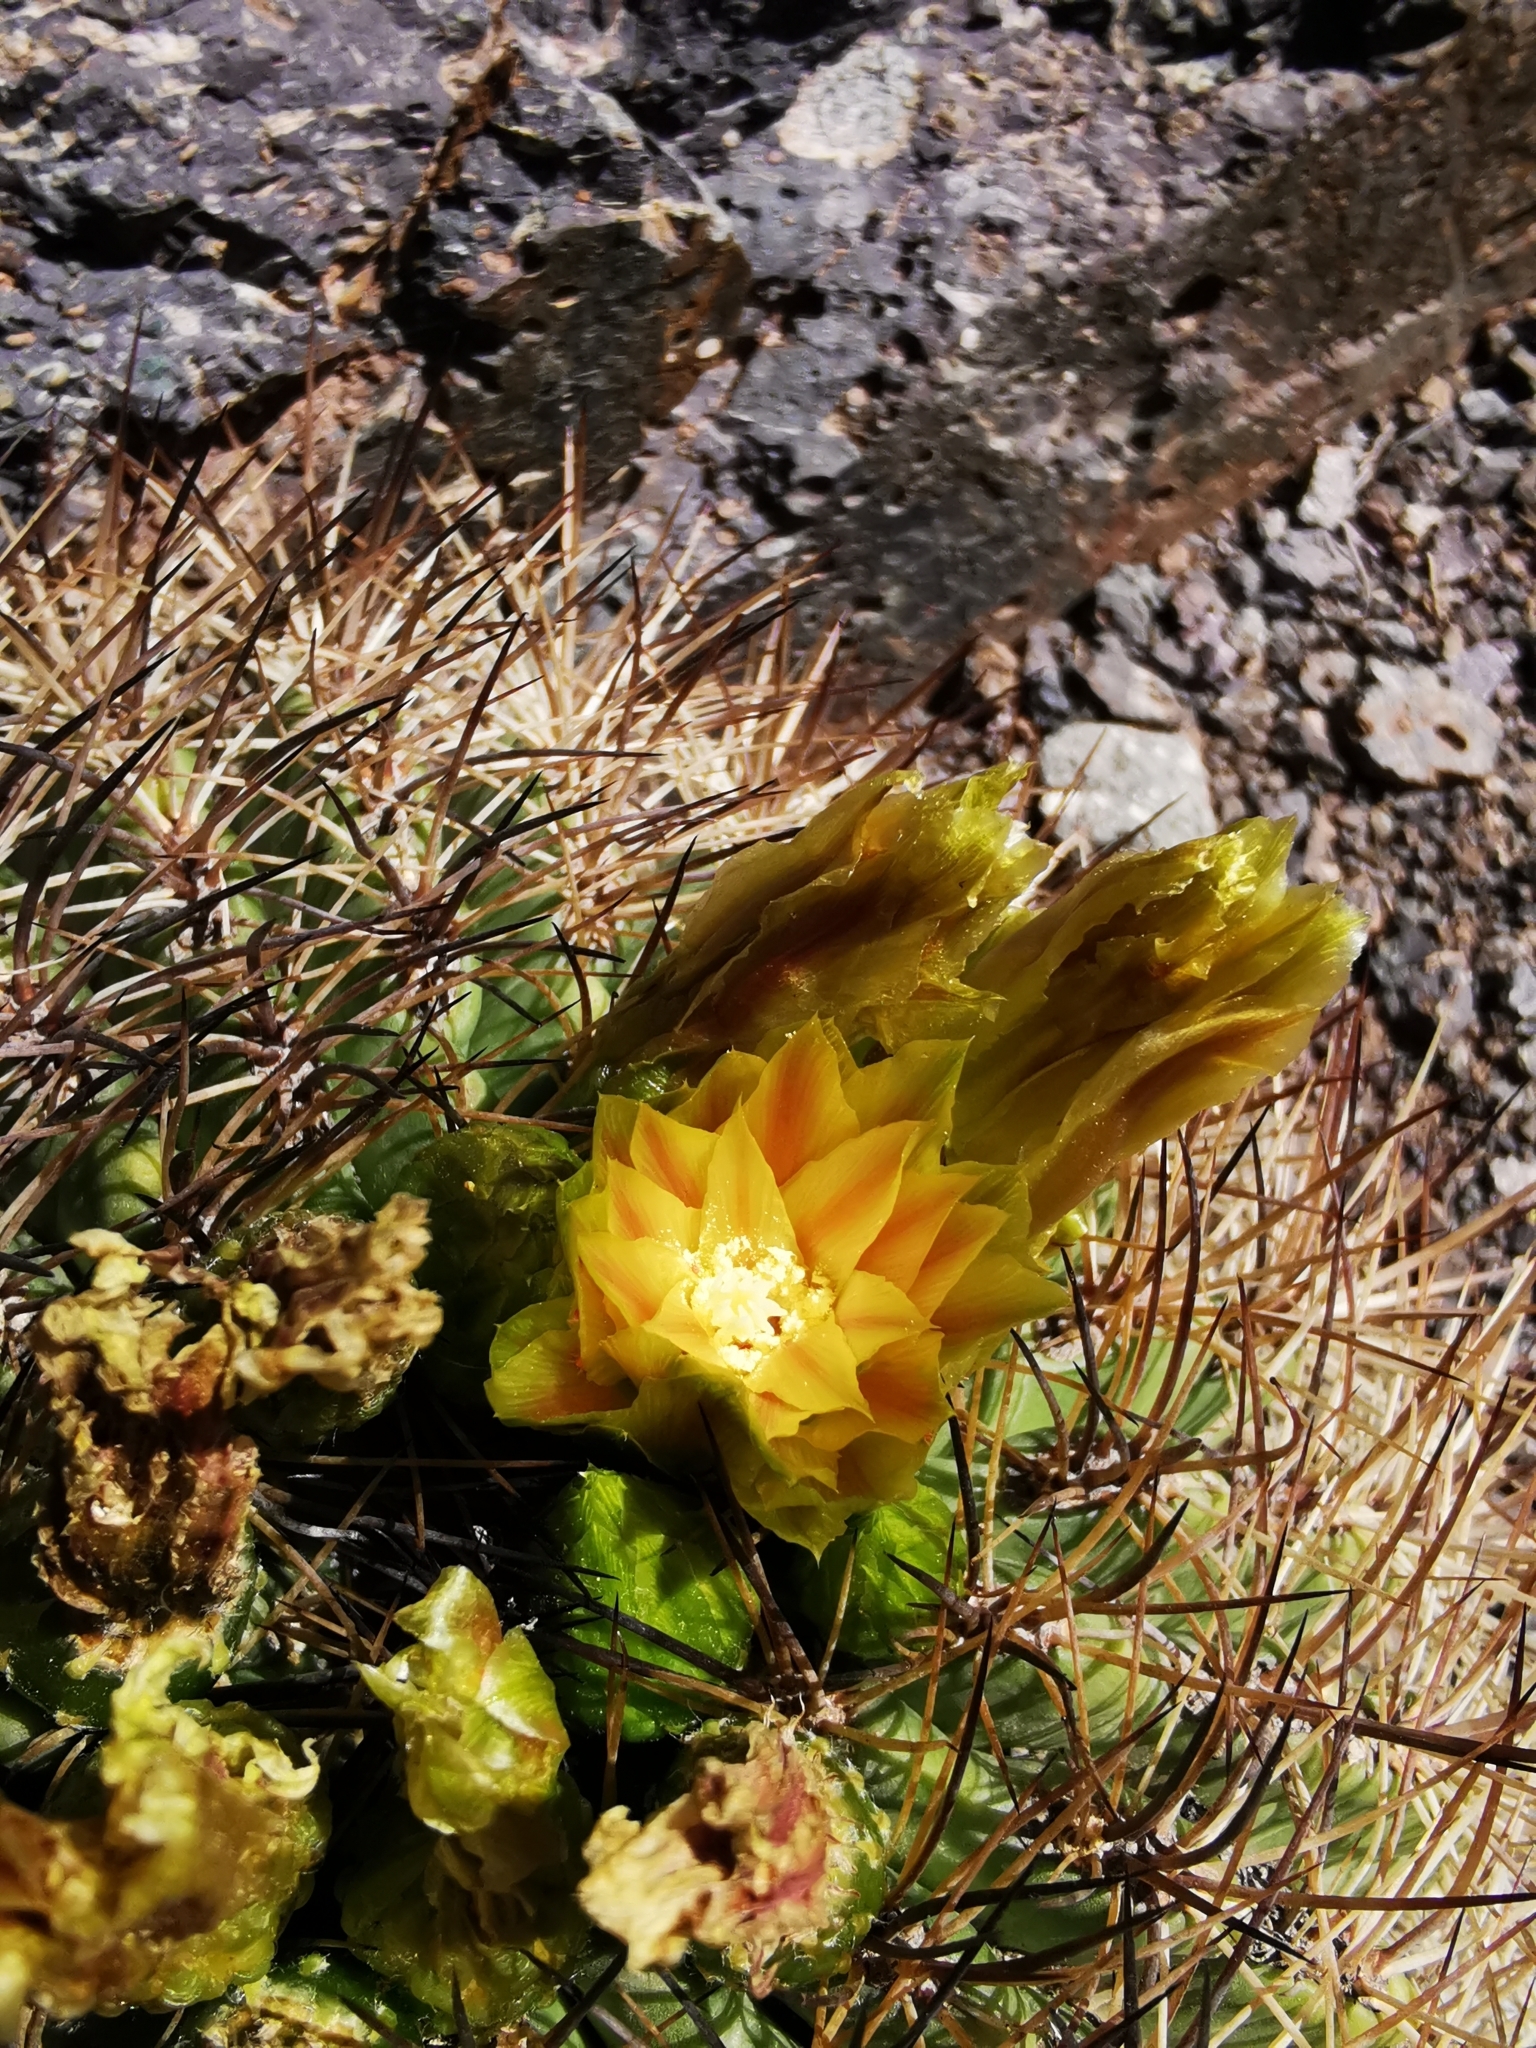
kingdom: Plantae
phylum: Tracheophyta
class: Magnoliopsida
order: Caryophyllales
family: Cactaceae
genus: Eriosyce
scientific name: Eriosyce curvispina
